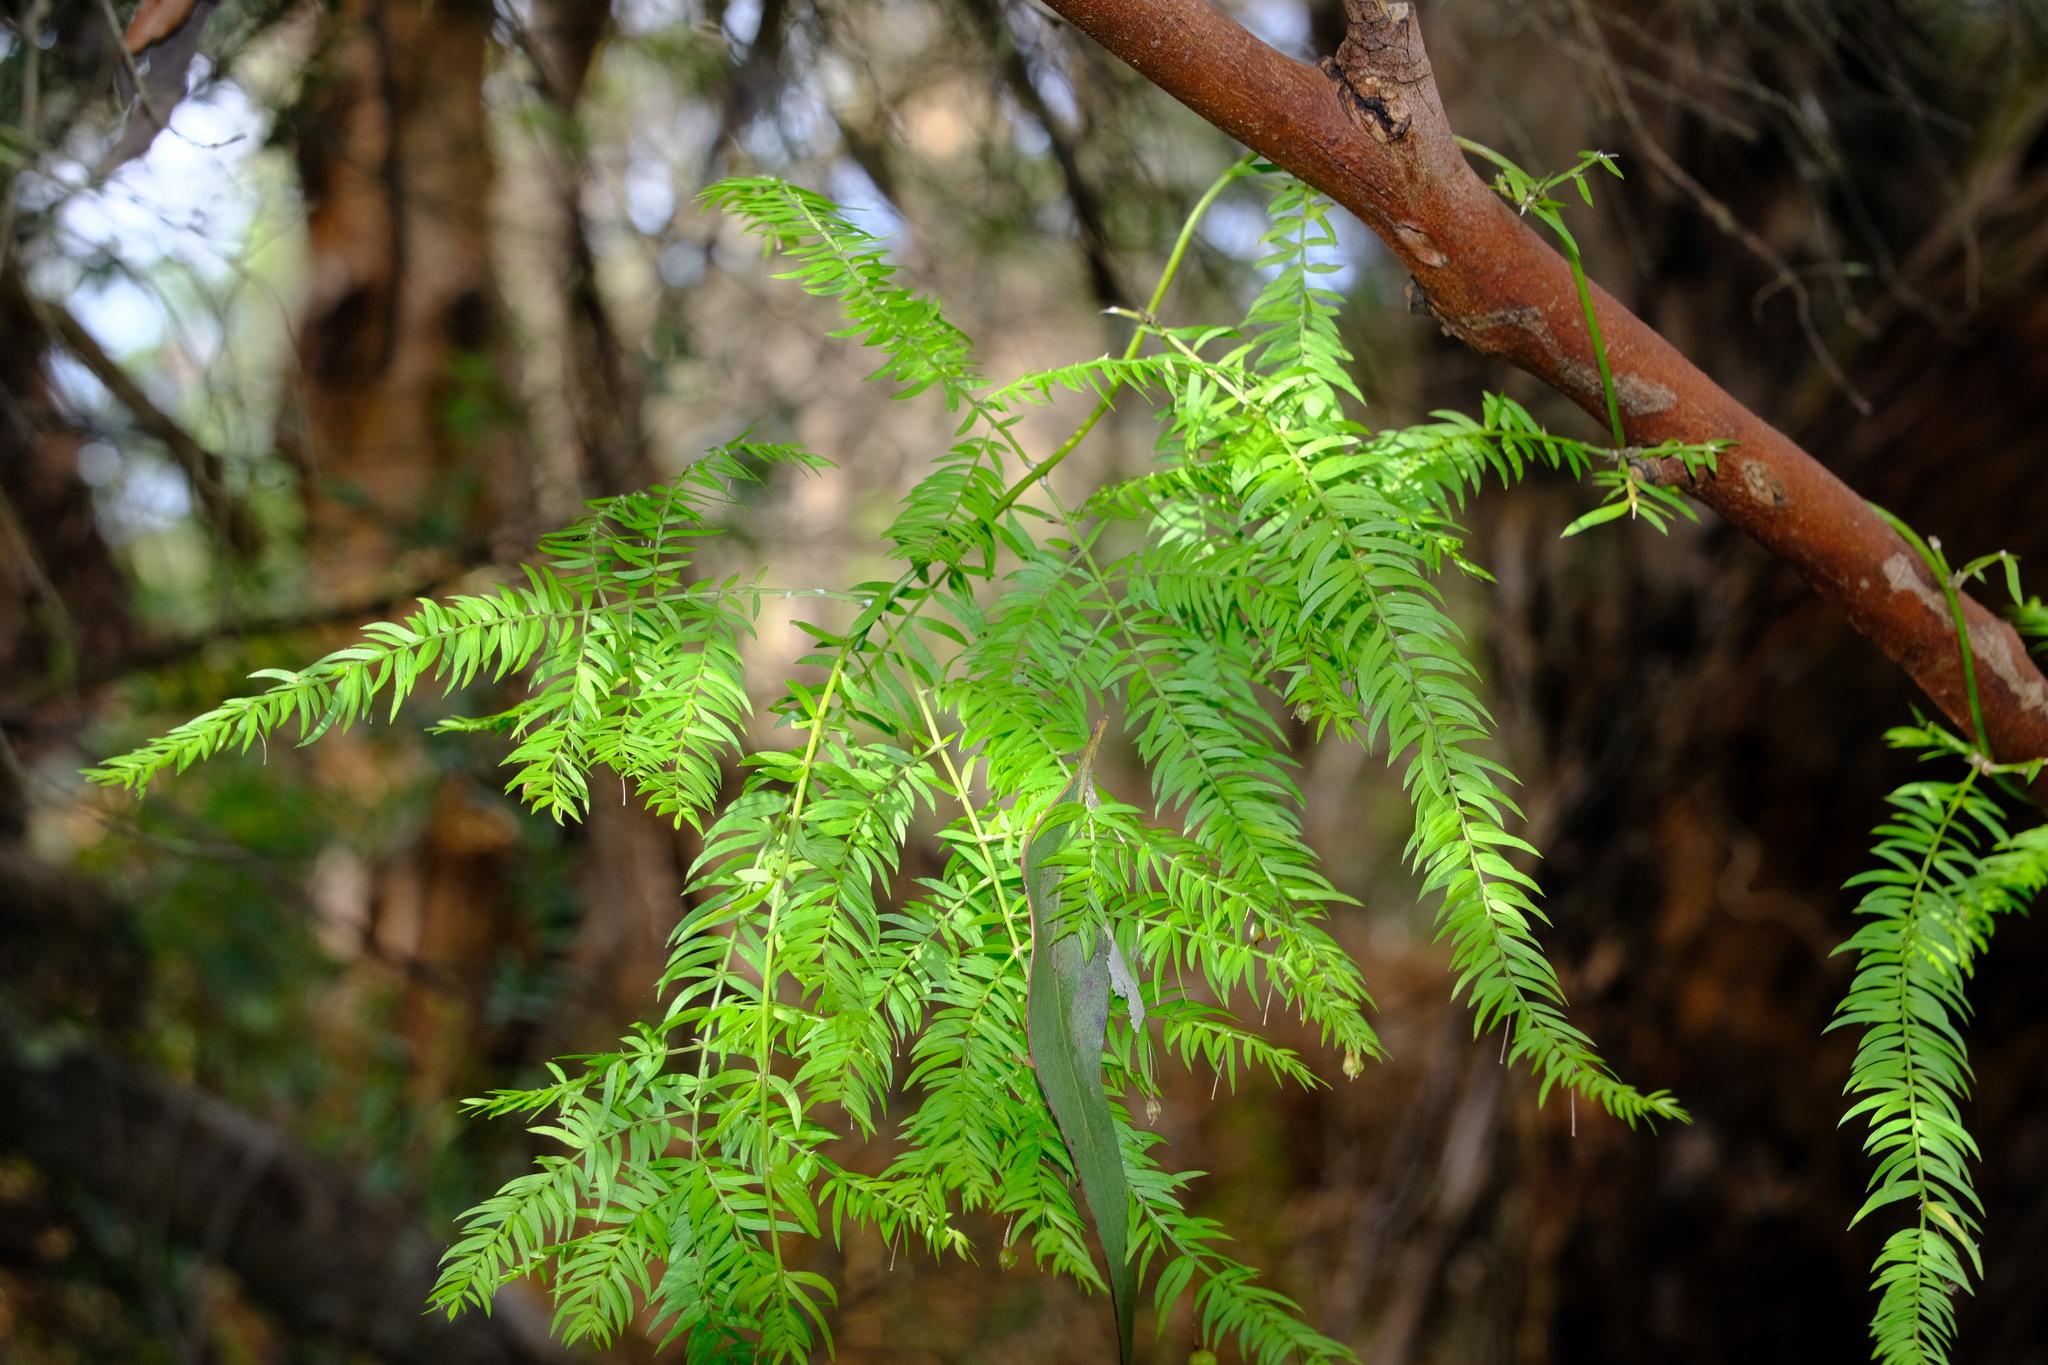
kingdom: Plantae
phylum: Tracheophyta
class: Liliopsida
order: Asparagales
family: Asparagaceae
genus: Asparagus
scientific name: Asparagus scandens
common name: Asparagus-fern
